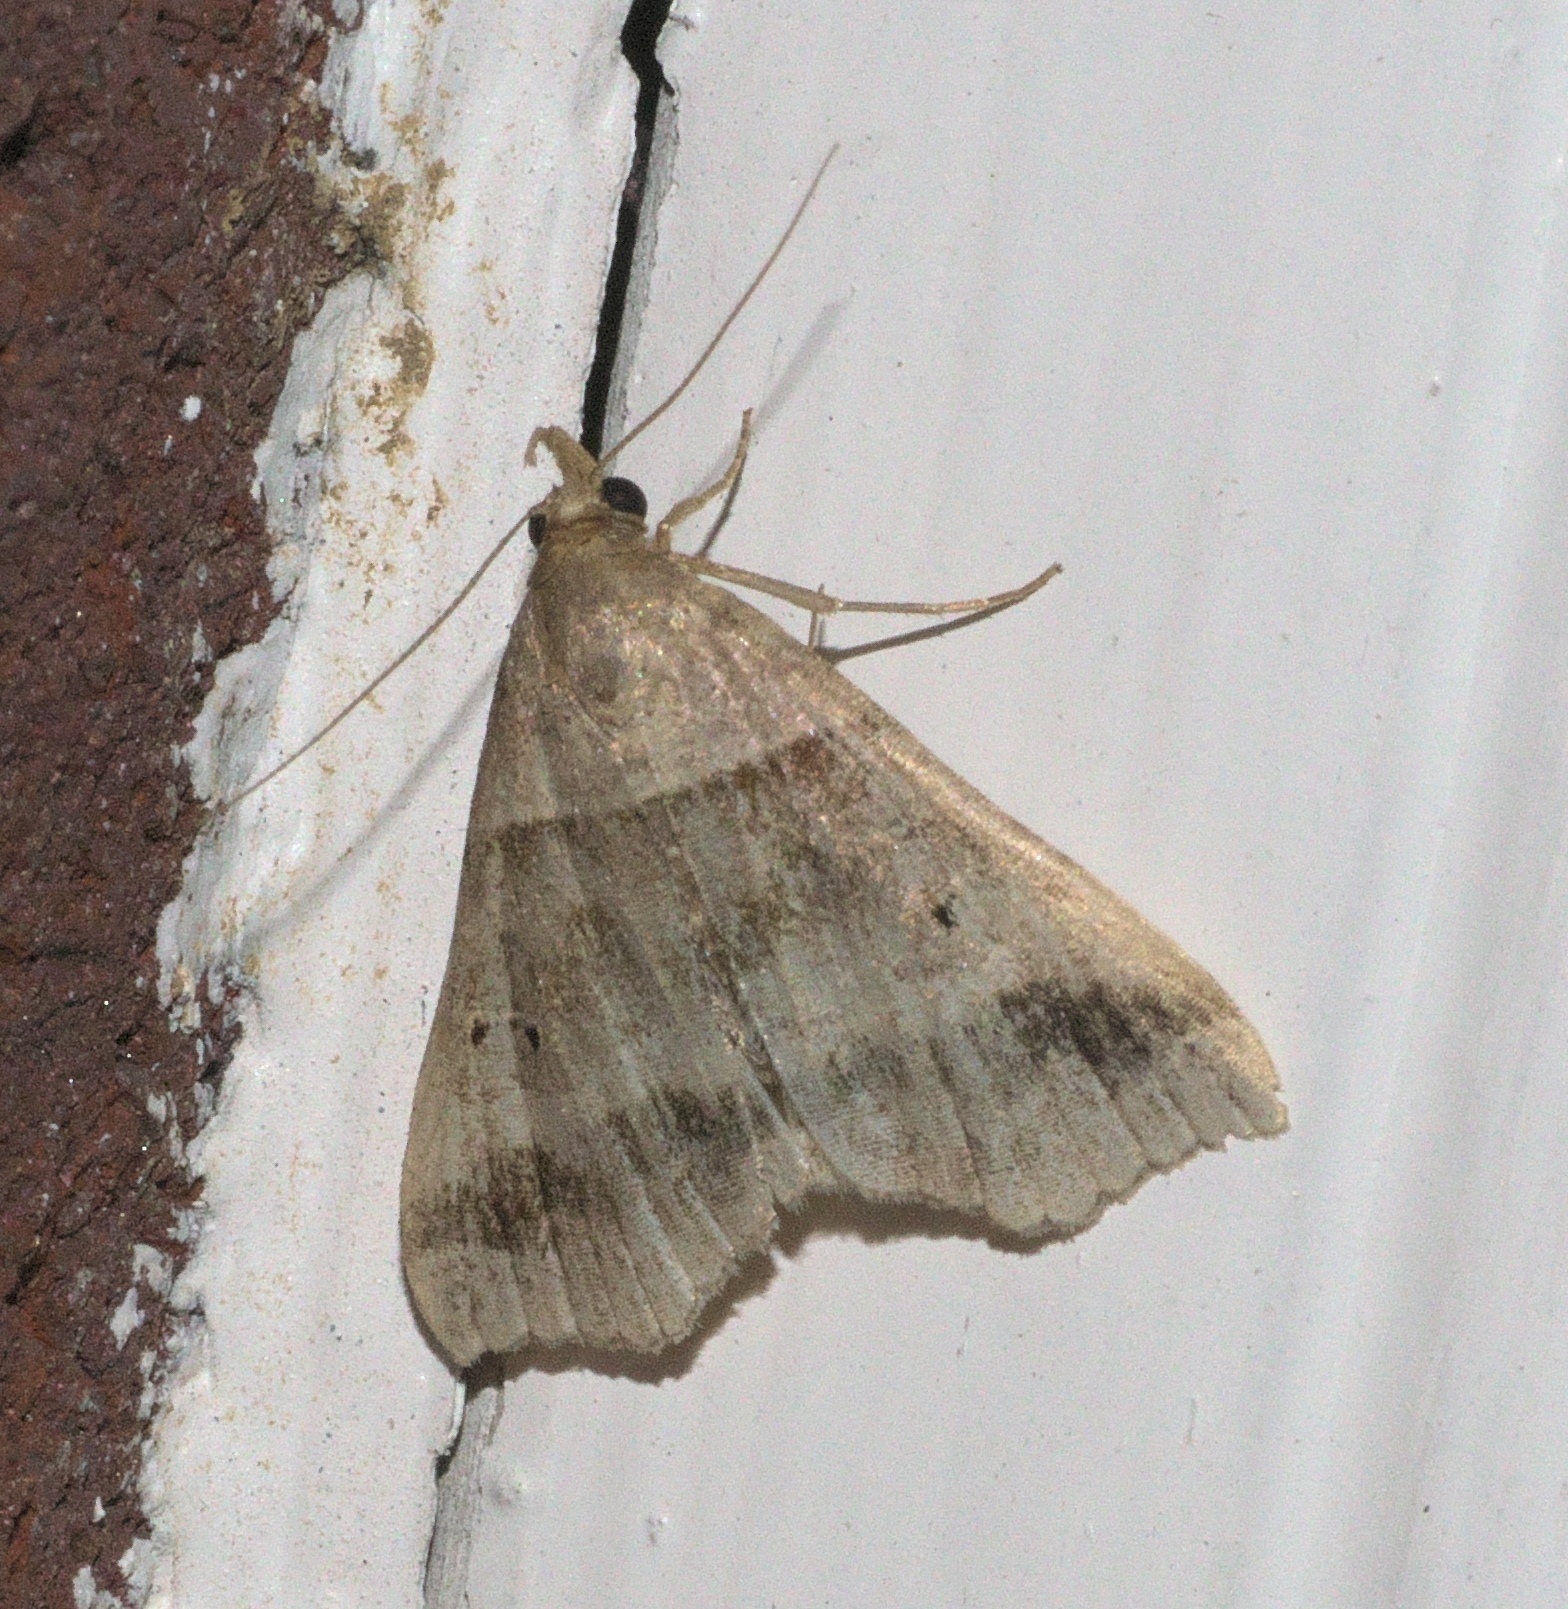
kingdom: Animalia
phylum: Arthropoda
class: Insecta
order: Lepidoptera
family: Erebidae
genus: Phaeolita
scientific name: Phaeolita pyramusalis
